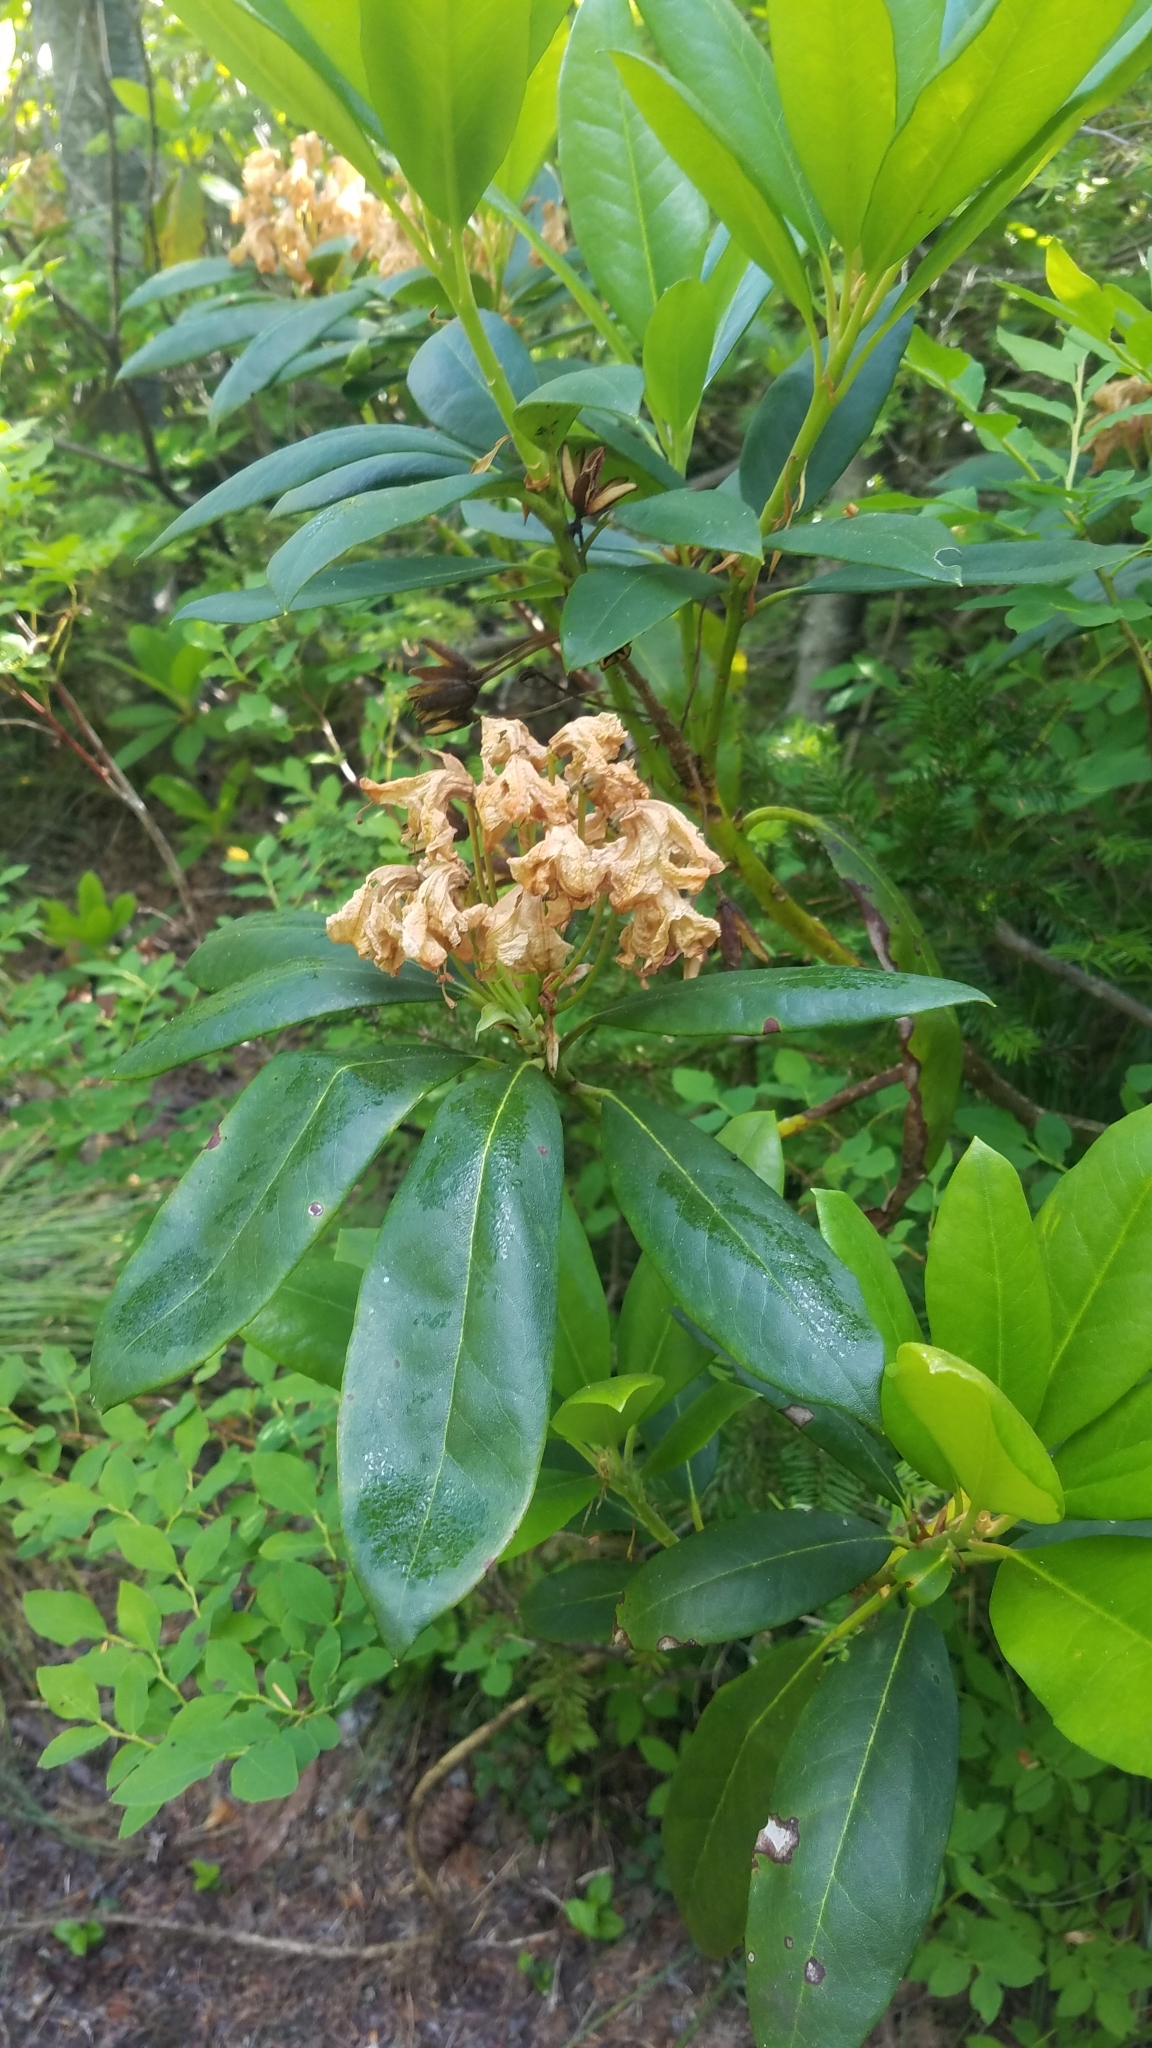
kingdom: Plantae
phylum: Tracheophyta
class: Magnoliopsida
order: Ericales
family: Ericaceae
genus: Rhododendron
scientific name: Rhododendron macrophyllum
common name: California rose bay
